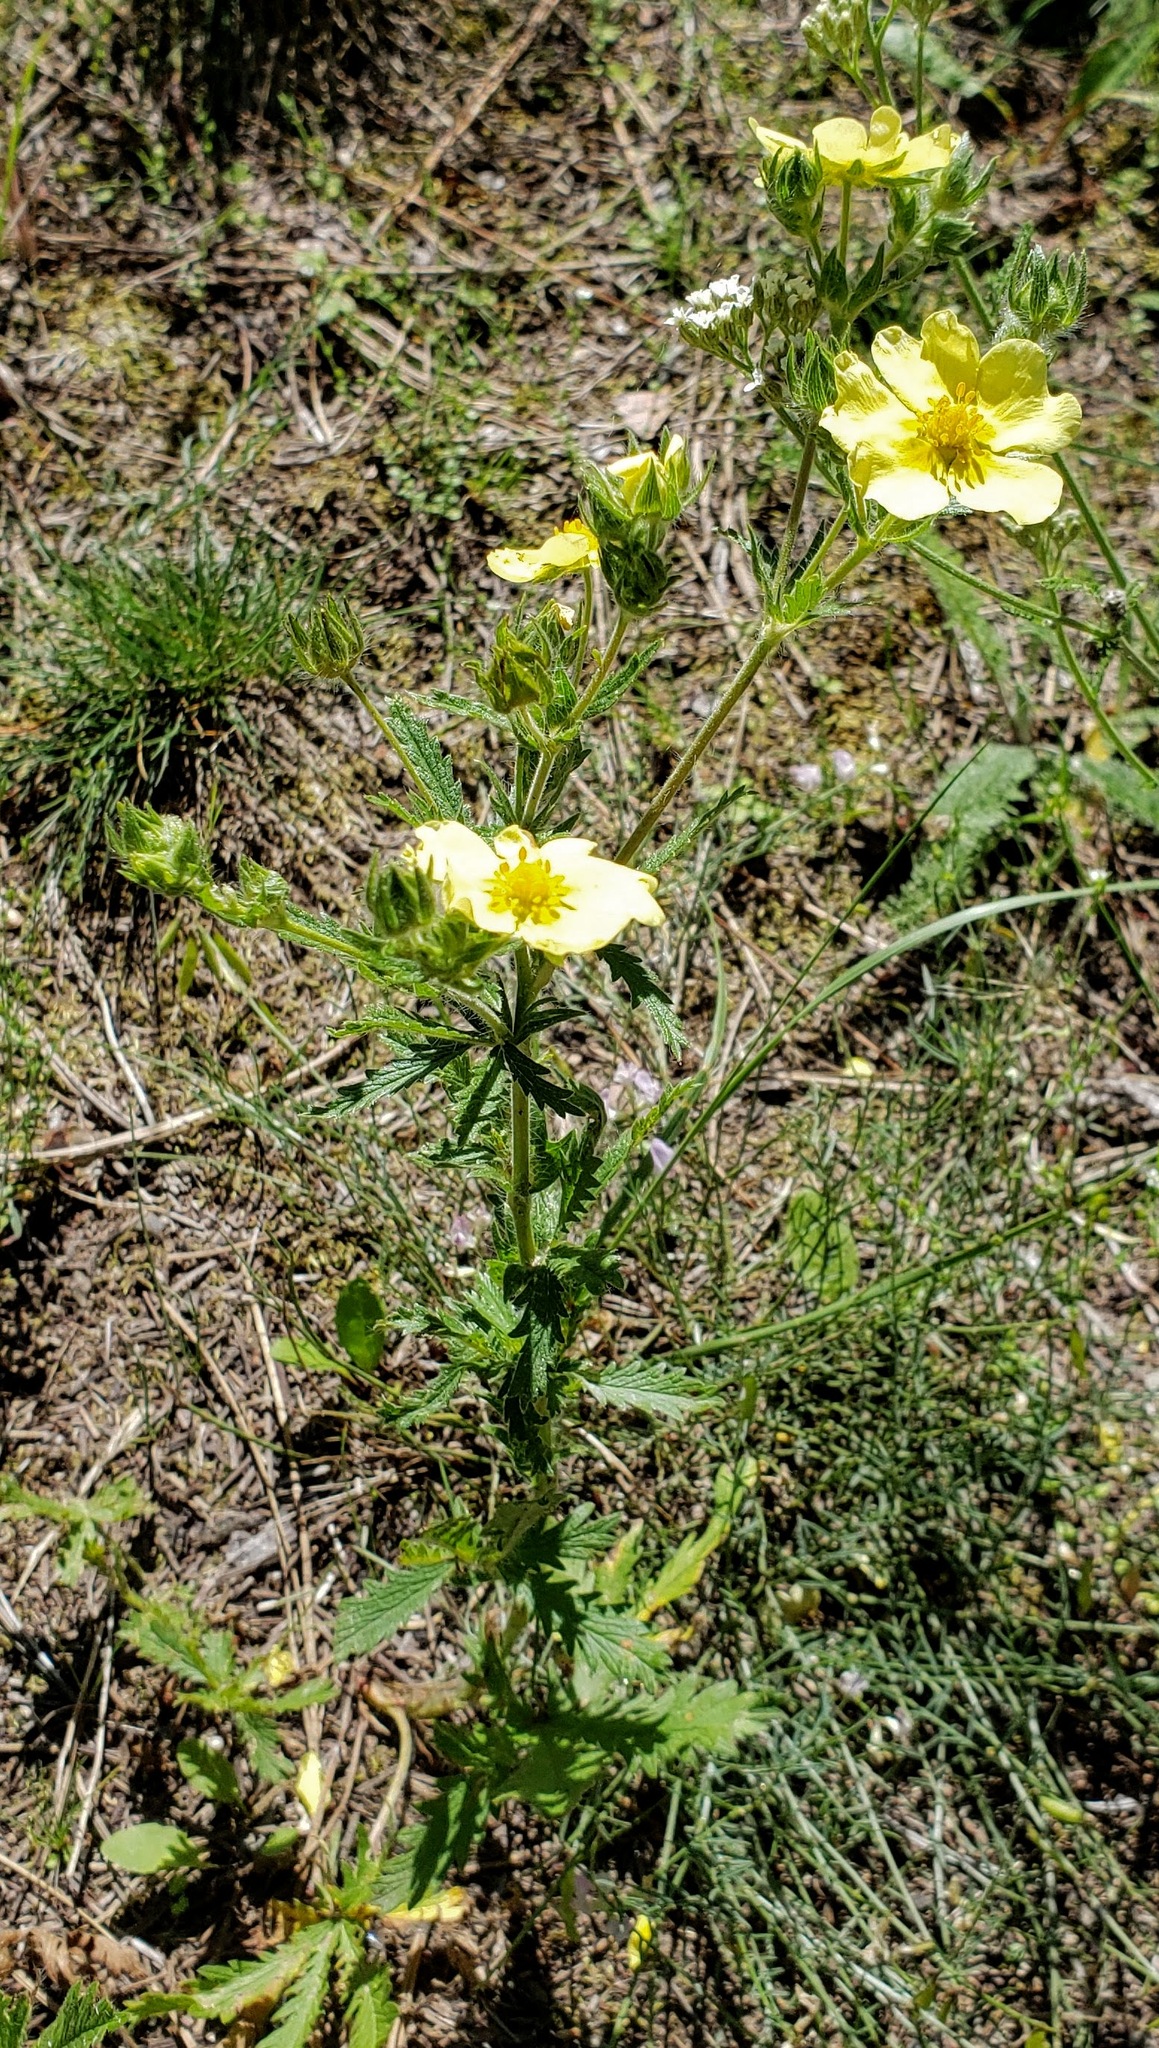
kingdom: Plantae
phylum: Tracheophyta
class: Magnoliopsida
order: Rosales
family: Rosaceae
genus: Potentilla
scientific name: Potentilla recta
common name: Sulphur cinquefoil
